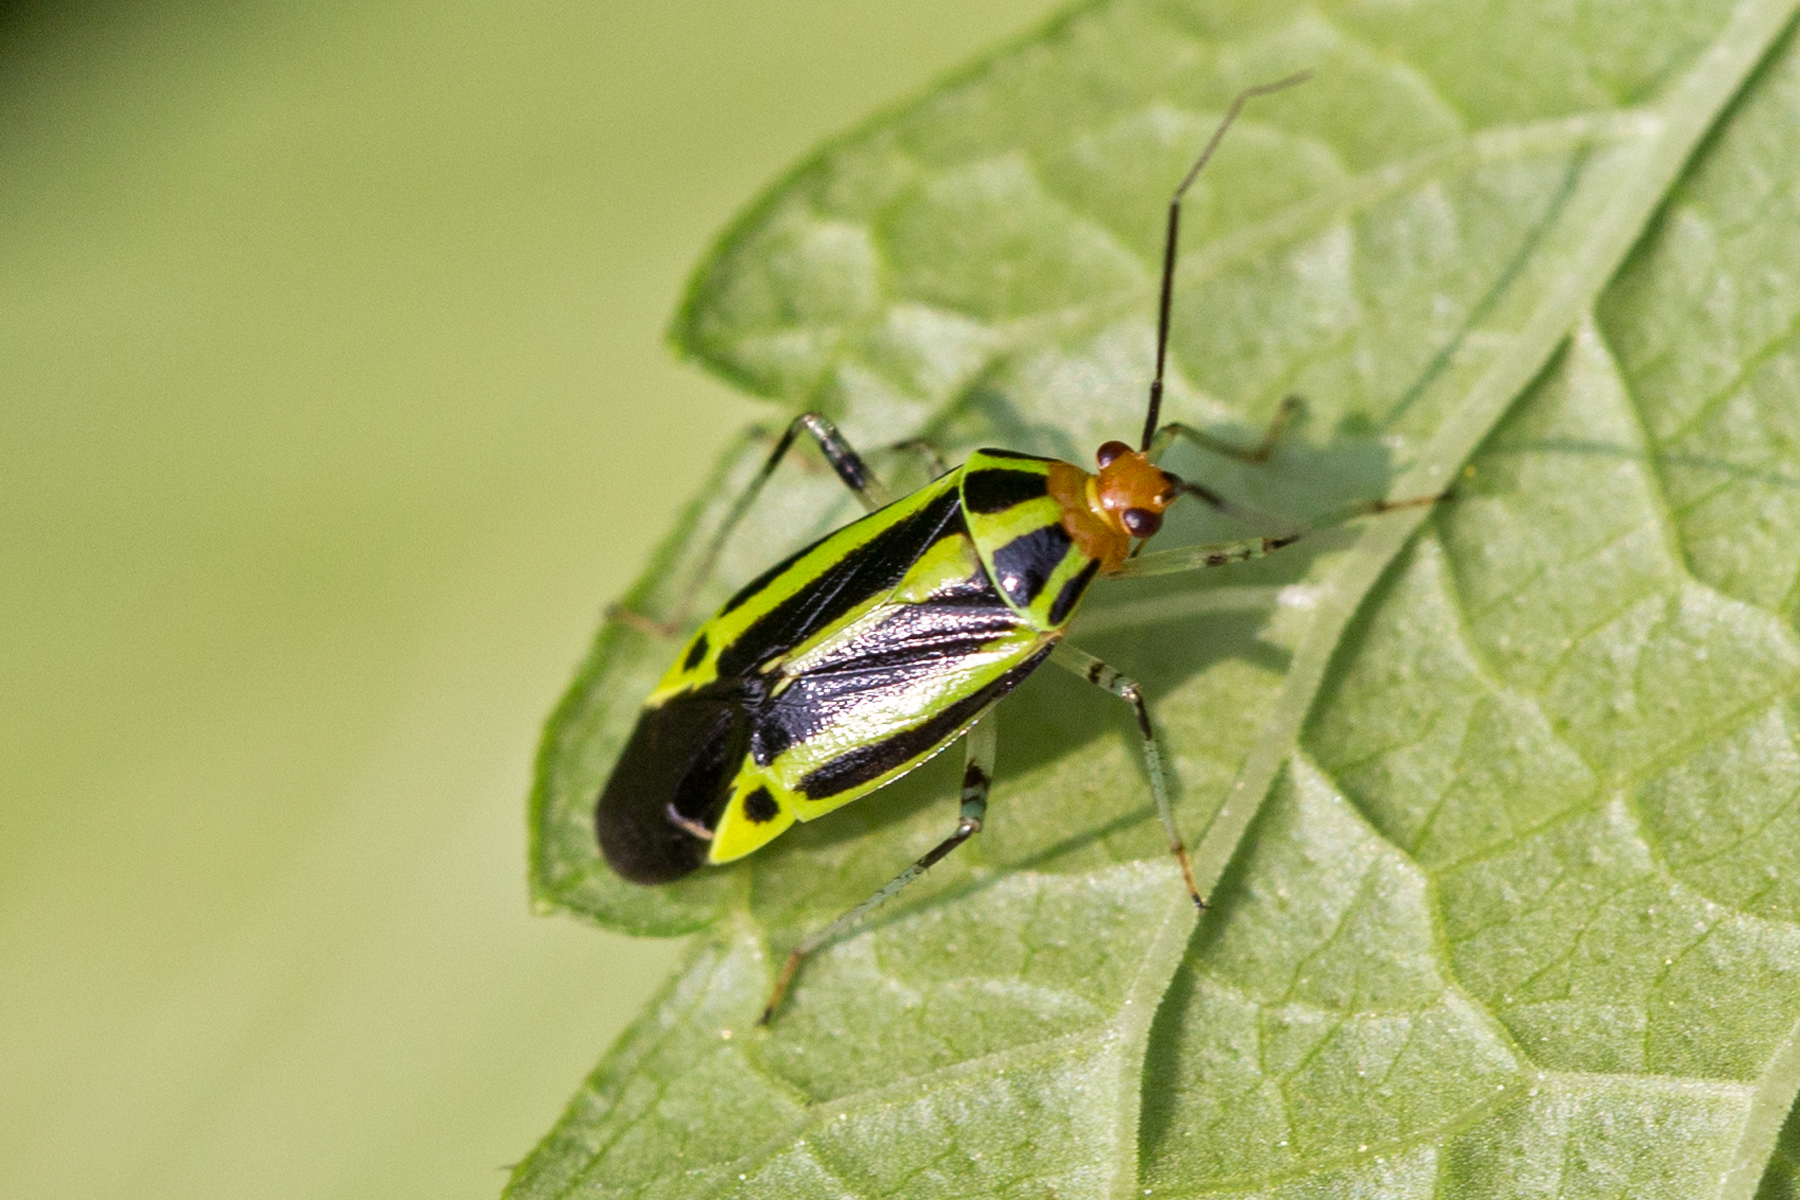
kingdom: Animalia
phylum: Arthropoda
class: Insecta
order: Hemiptera
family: Miridae
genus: Poecilocapsus
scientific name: Poecilocapsus lineatus
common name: Four-lined plant bug
